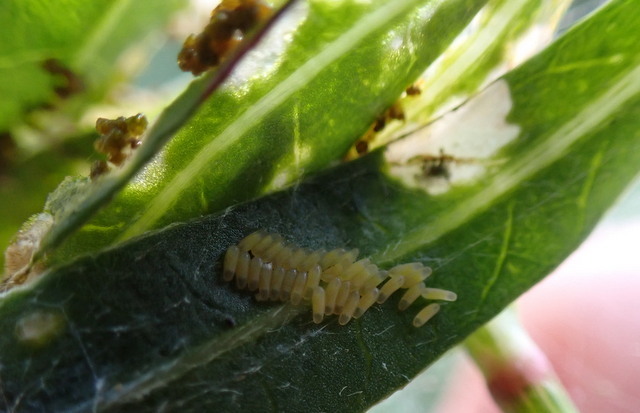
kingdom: Animalia
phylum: Arthropoda
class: Insecta
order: Coleoptera
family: Chrysomelidae
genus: Agasicles
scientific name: Agasicles hygrophila
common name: Alligatorweed flea beetle
